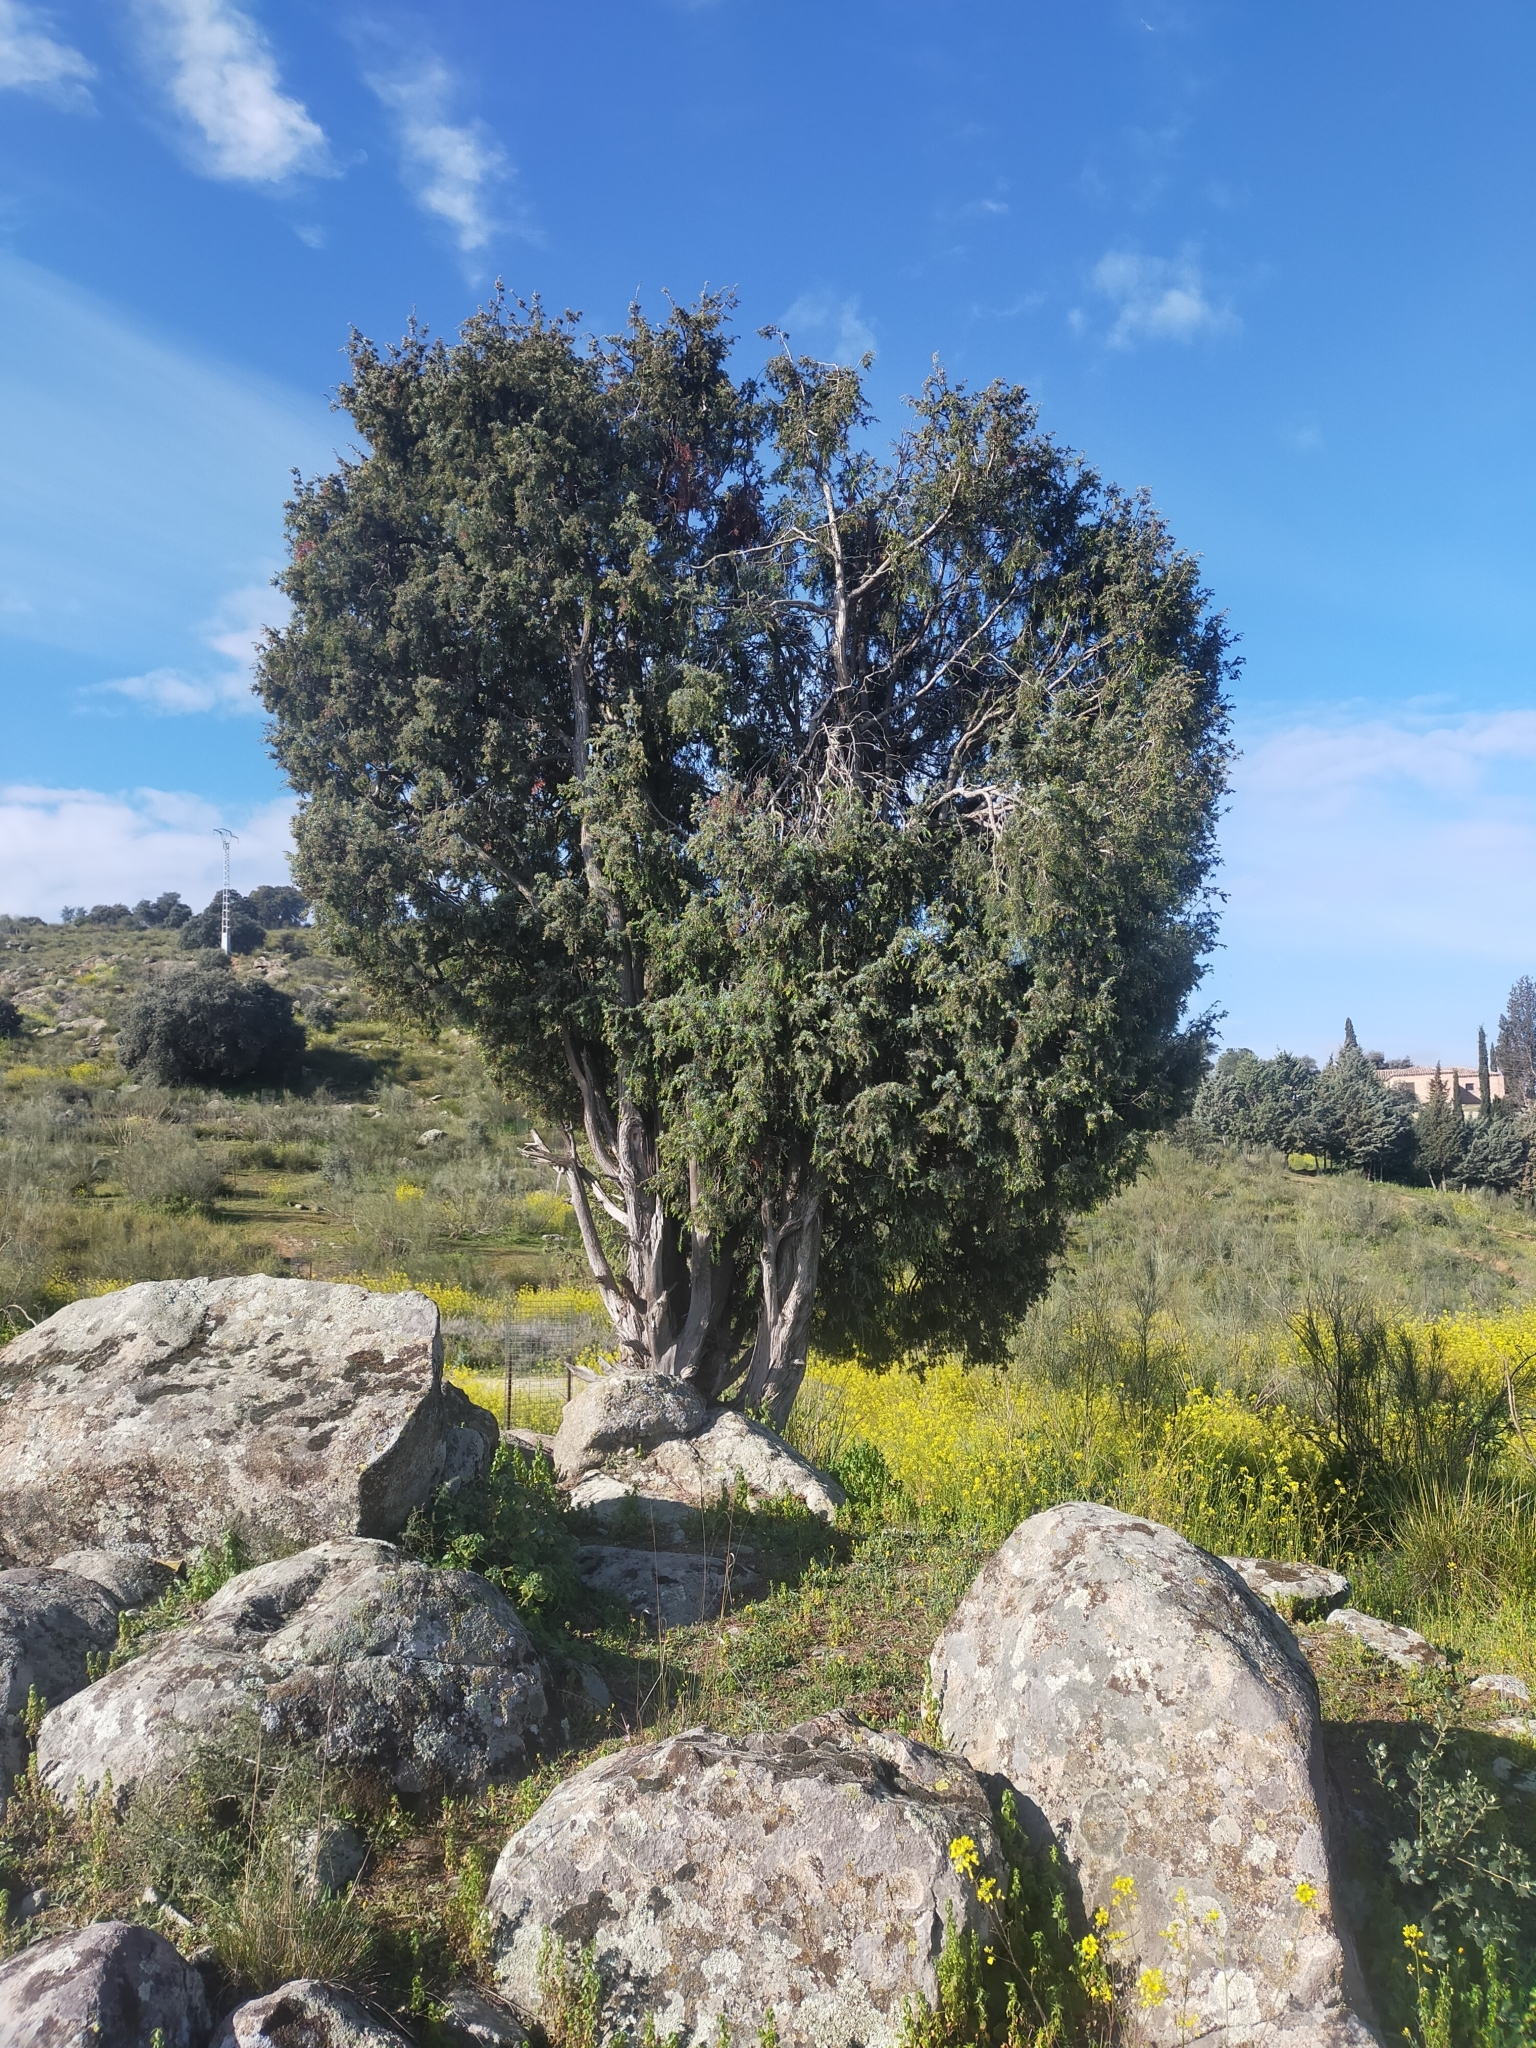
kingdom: Plantae
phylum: Tracheophyta
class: Pinopsida
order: Pinales
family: Cupressaceae
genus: Juniperus
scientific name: Juniperus oxycedrus
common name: Prickly juniper
